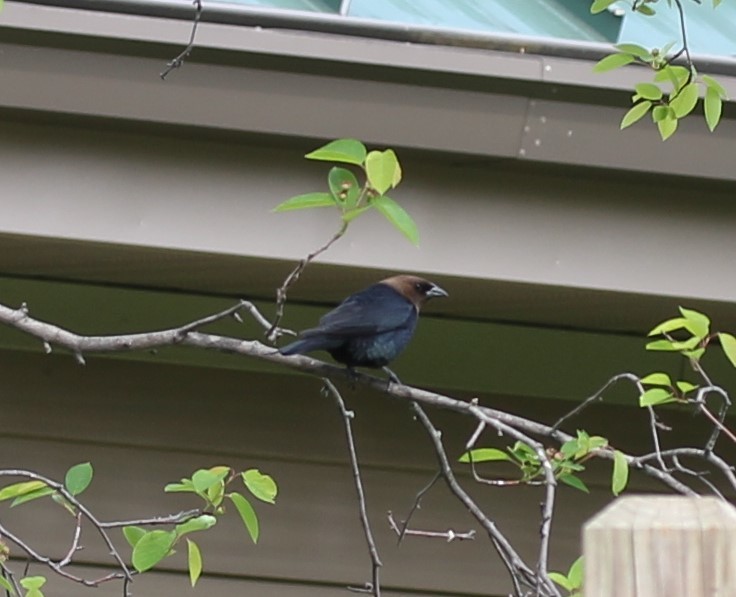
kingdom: Animalia
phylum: Chordata
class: Aves
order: Passeriformes
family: Icteridae
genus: Molothrus
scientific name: Molothrus ater
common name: Brown-headed cowbird
